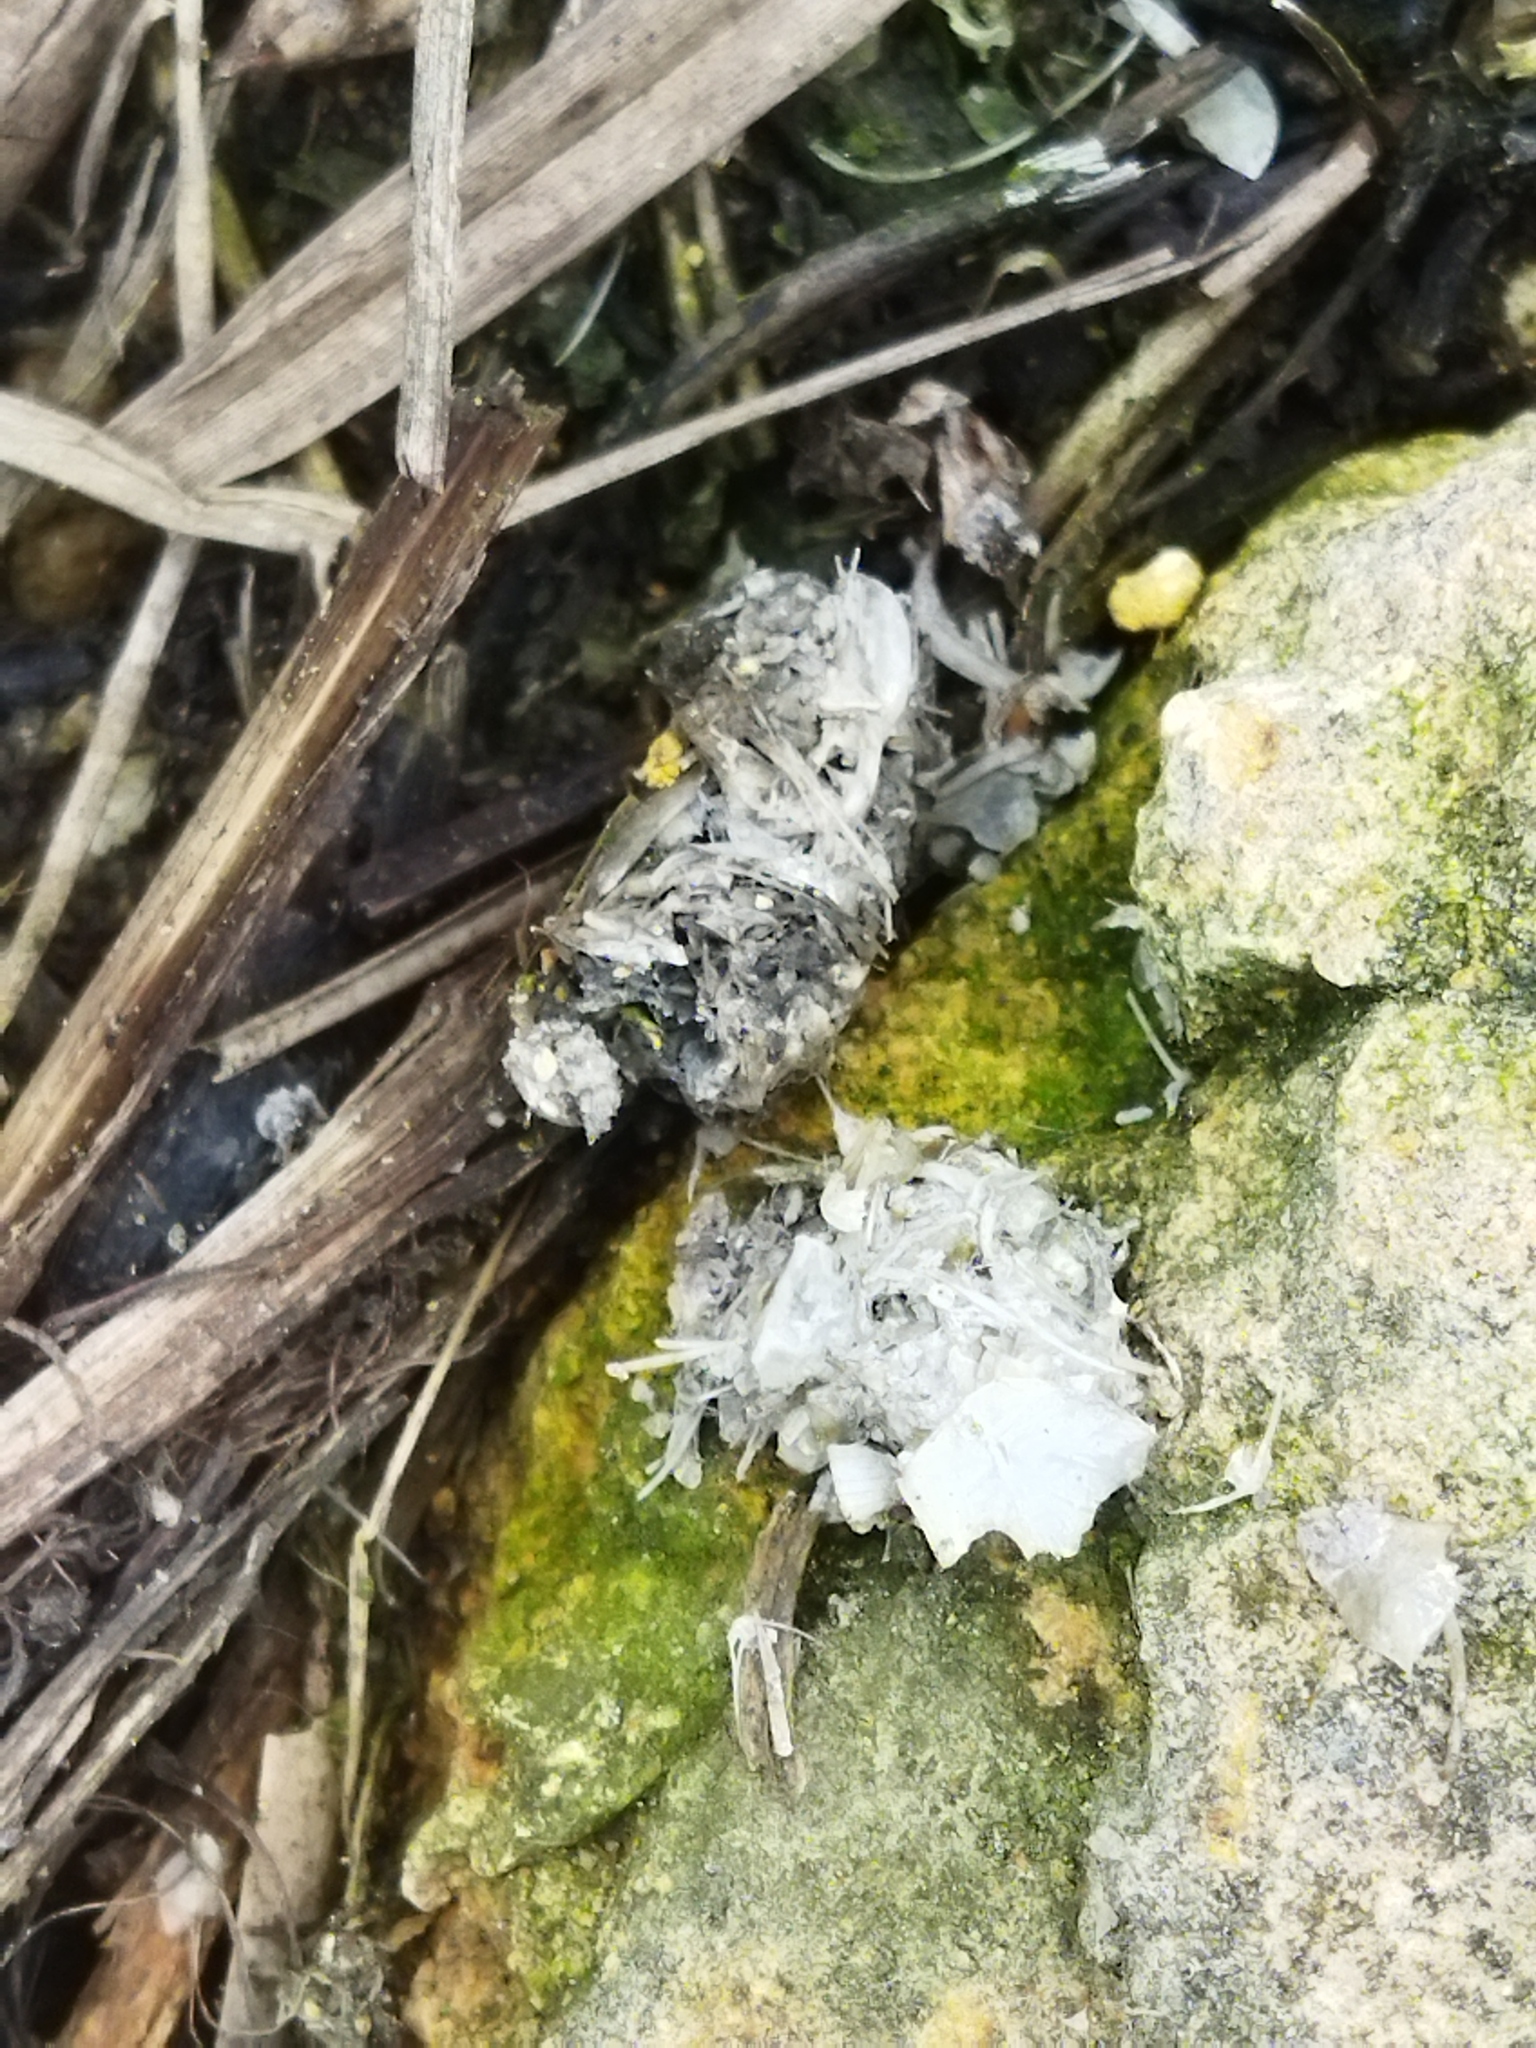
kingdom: Animalia
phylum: Chordata
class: Mammalia
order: Carnivora
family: Mustelidae
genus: Lutra
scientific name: Lutra lutra
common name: European otter
